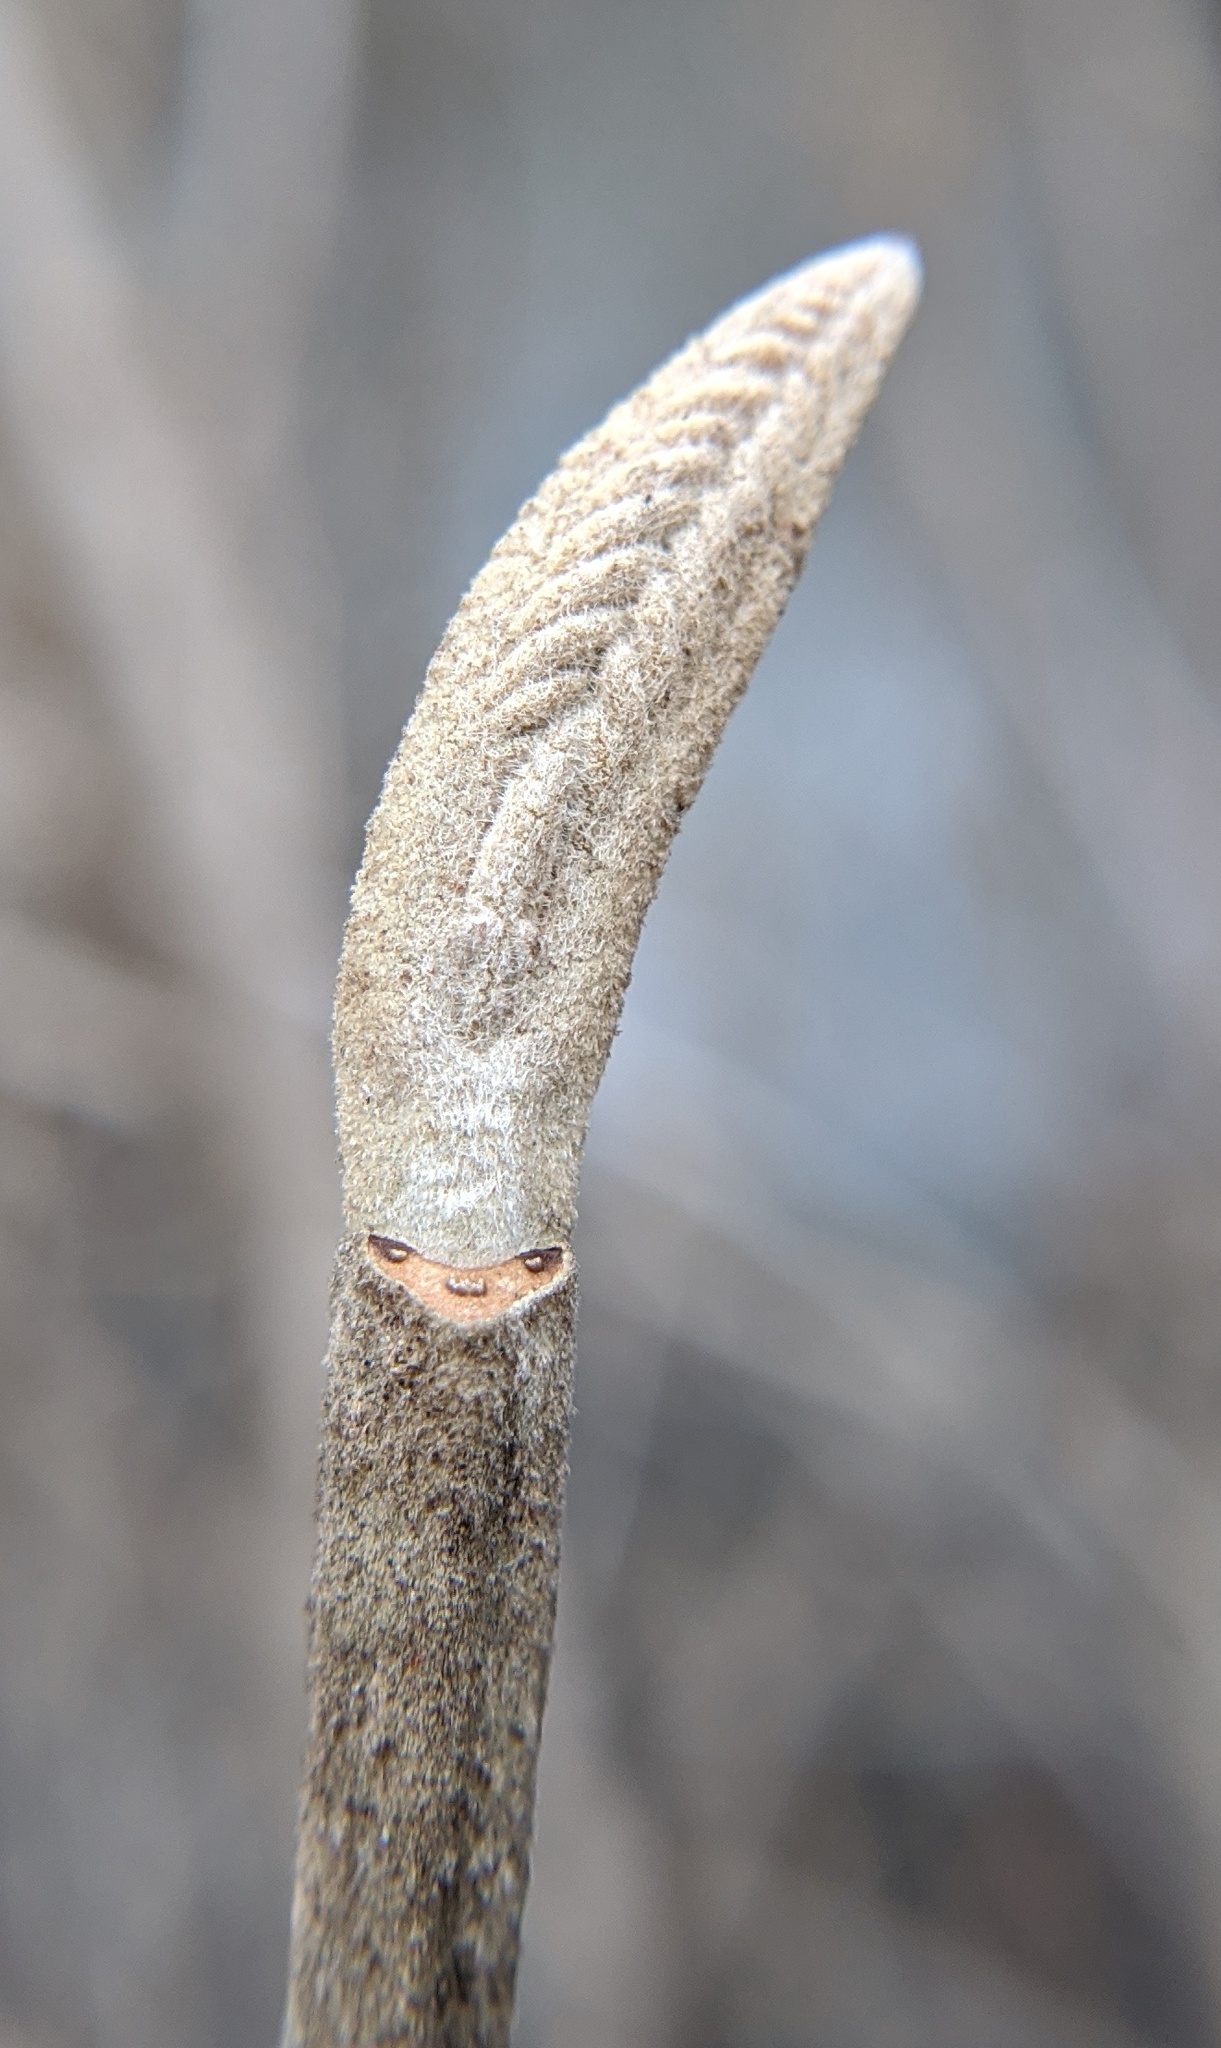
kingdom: Plantae
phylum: Tracheophyta
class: Magnoliopsida
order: Dipsacales
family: Viburnaceae
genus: Viburnum
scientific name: Viburnum lantana
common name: Wayfaring tree
